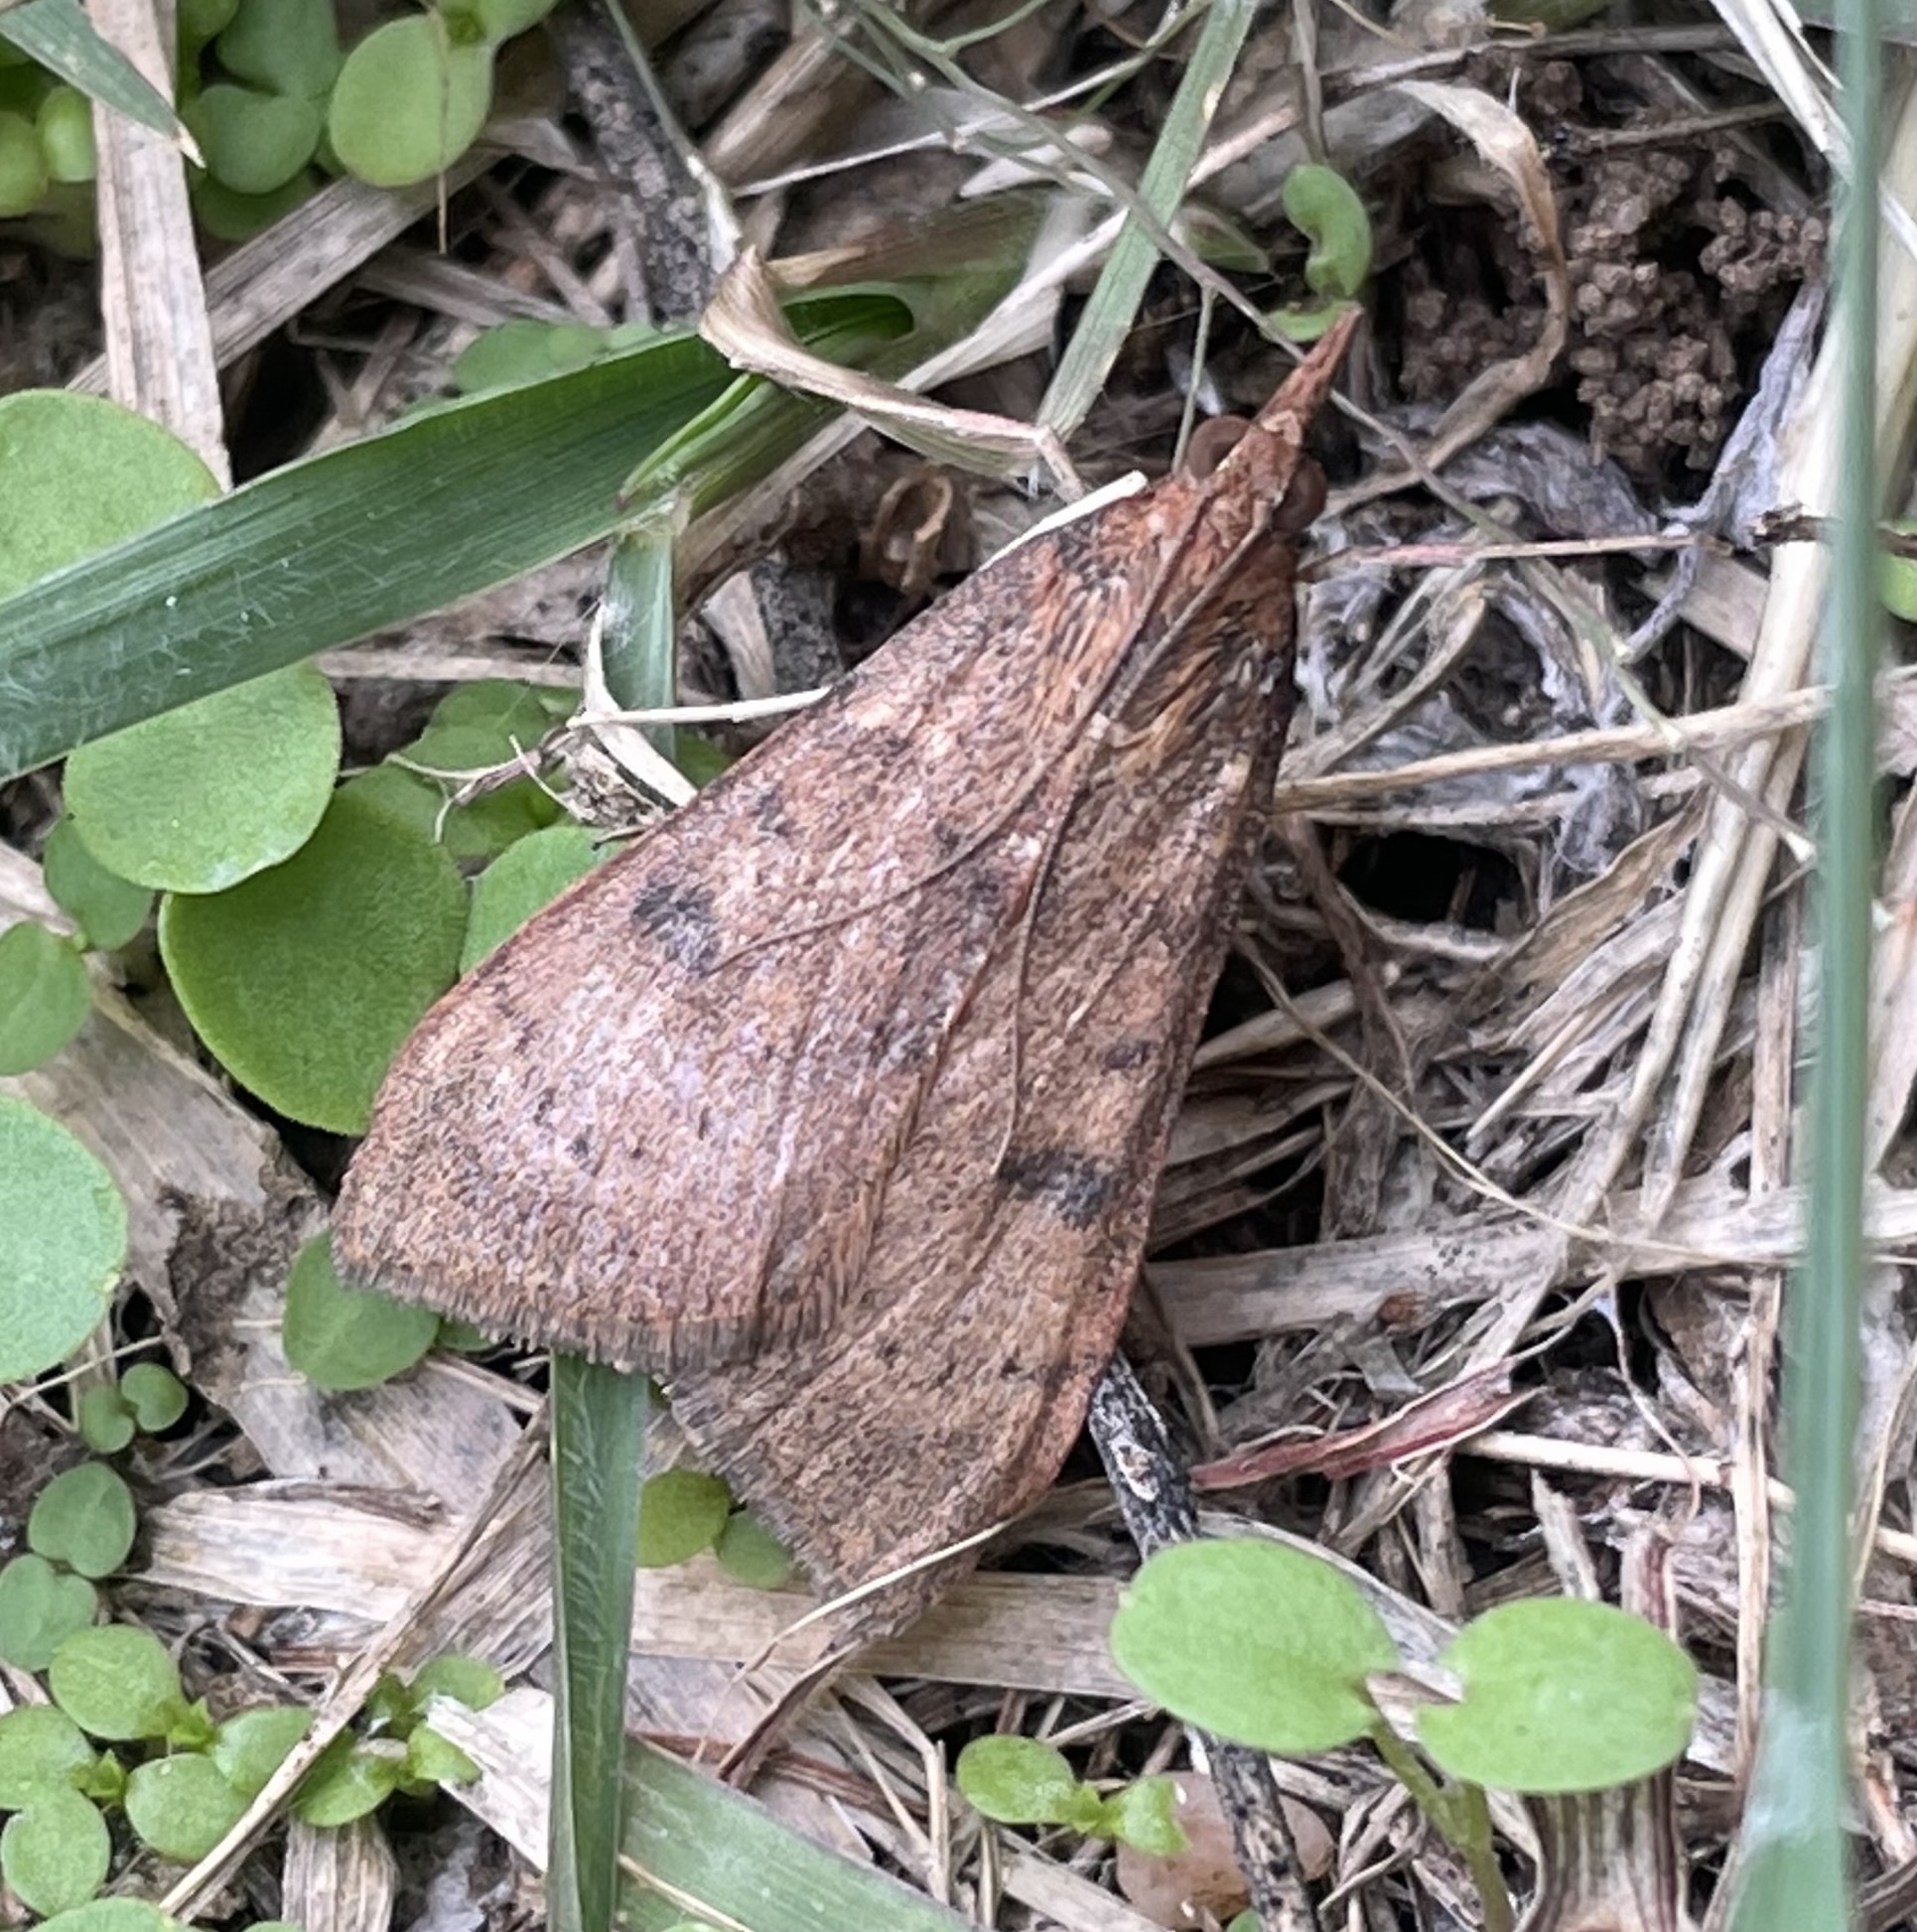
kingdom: Animalia
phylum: Arthropoda
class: Insecta
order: Lepidoptera
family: Crambidae
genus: Uresiphita
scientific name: Uresiphita reversalis
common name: Genista broom moth
